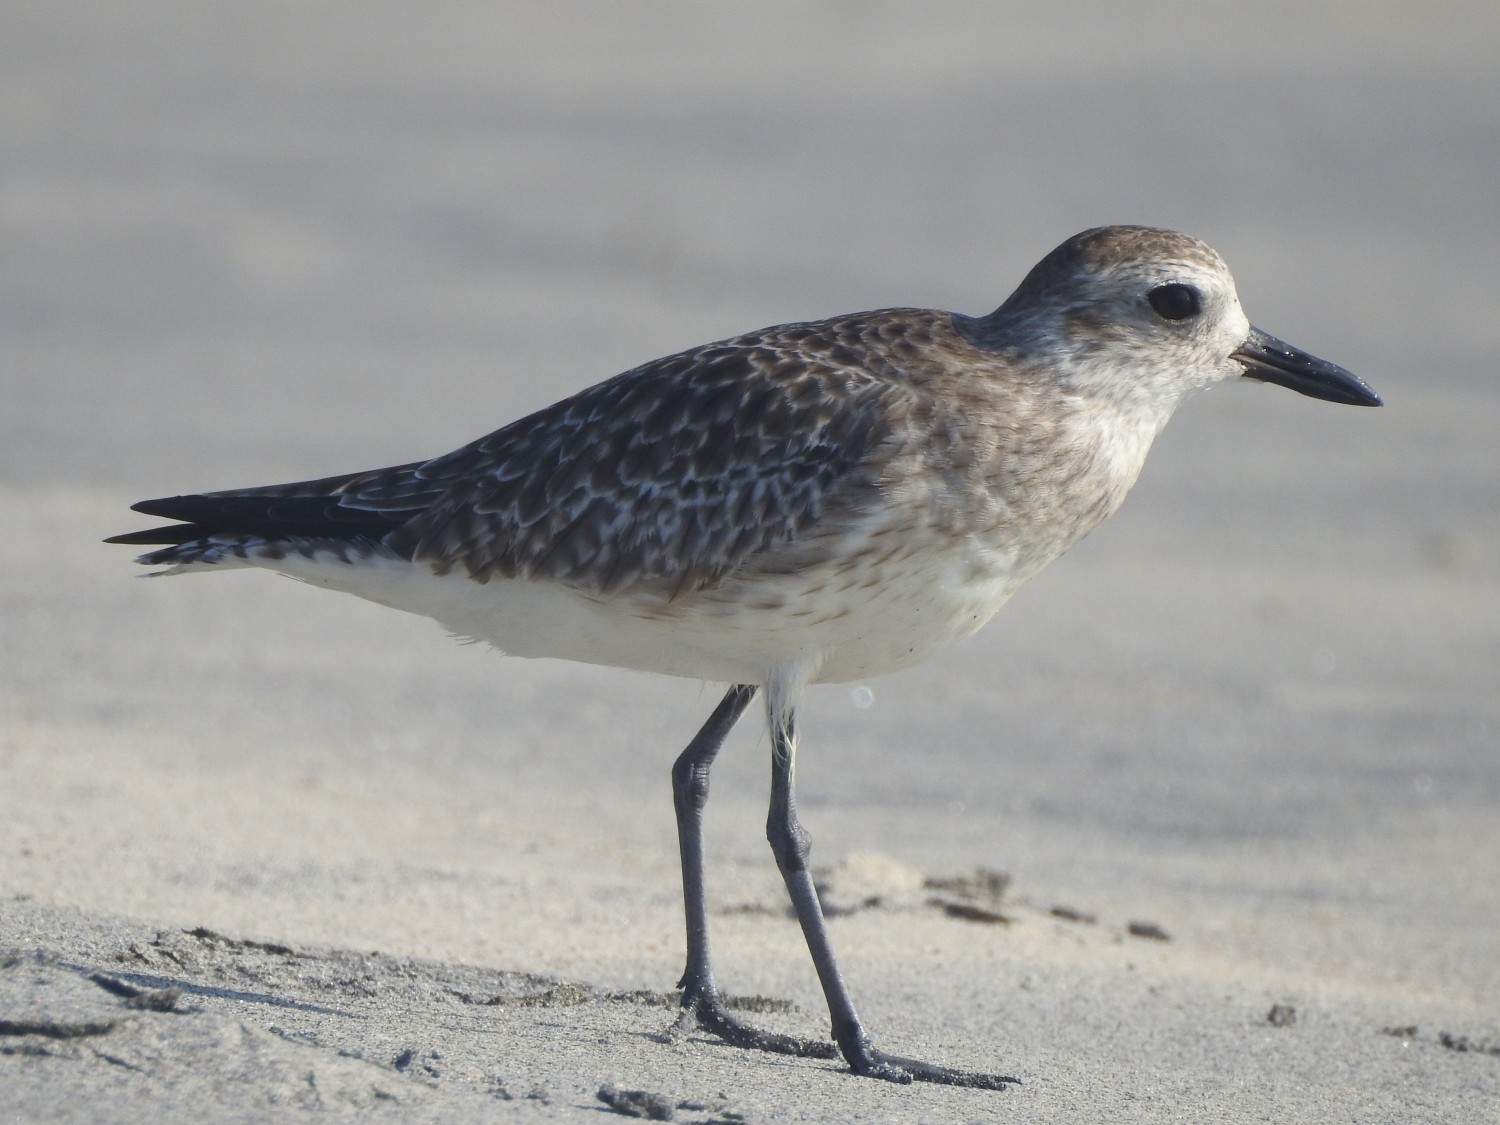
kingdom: Animalia
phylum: Chordata
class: Aves
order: Charadriiformes
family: Charadriidae
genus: Pluvialis
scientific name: Pluvialis squatarola
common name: Grey plover
